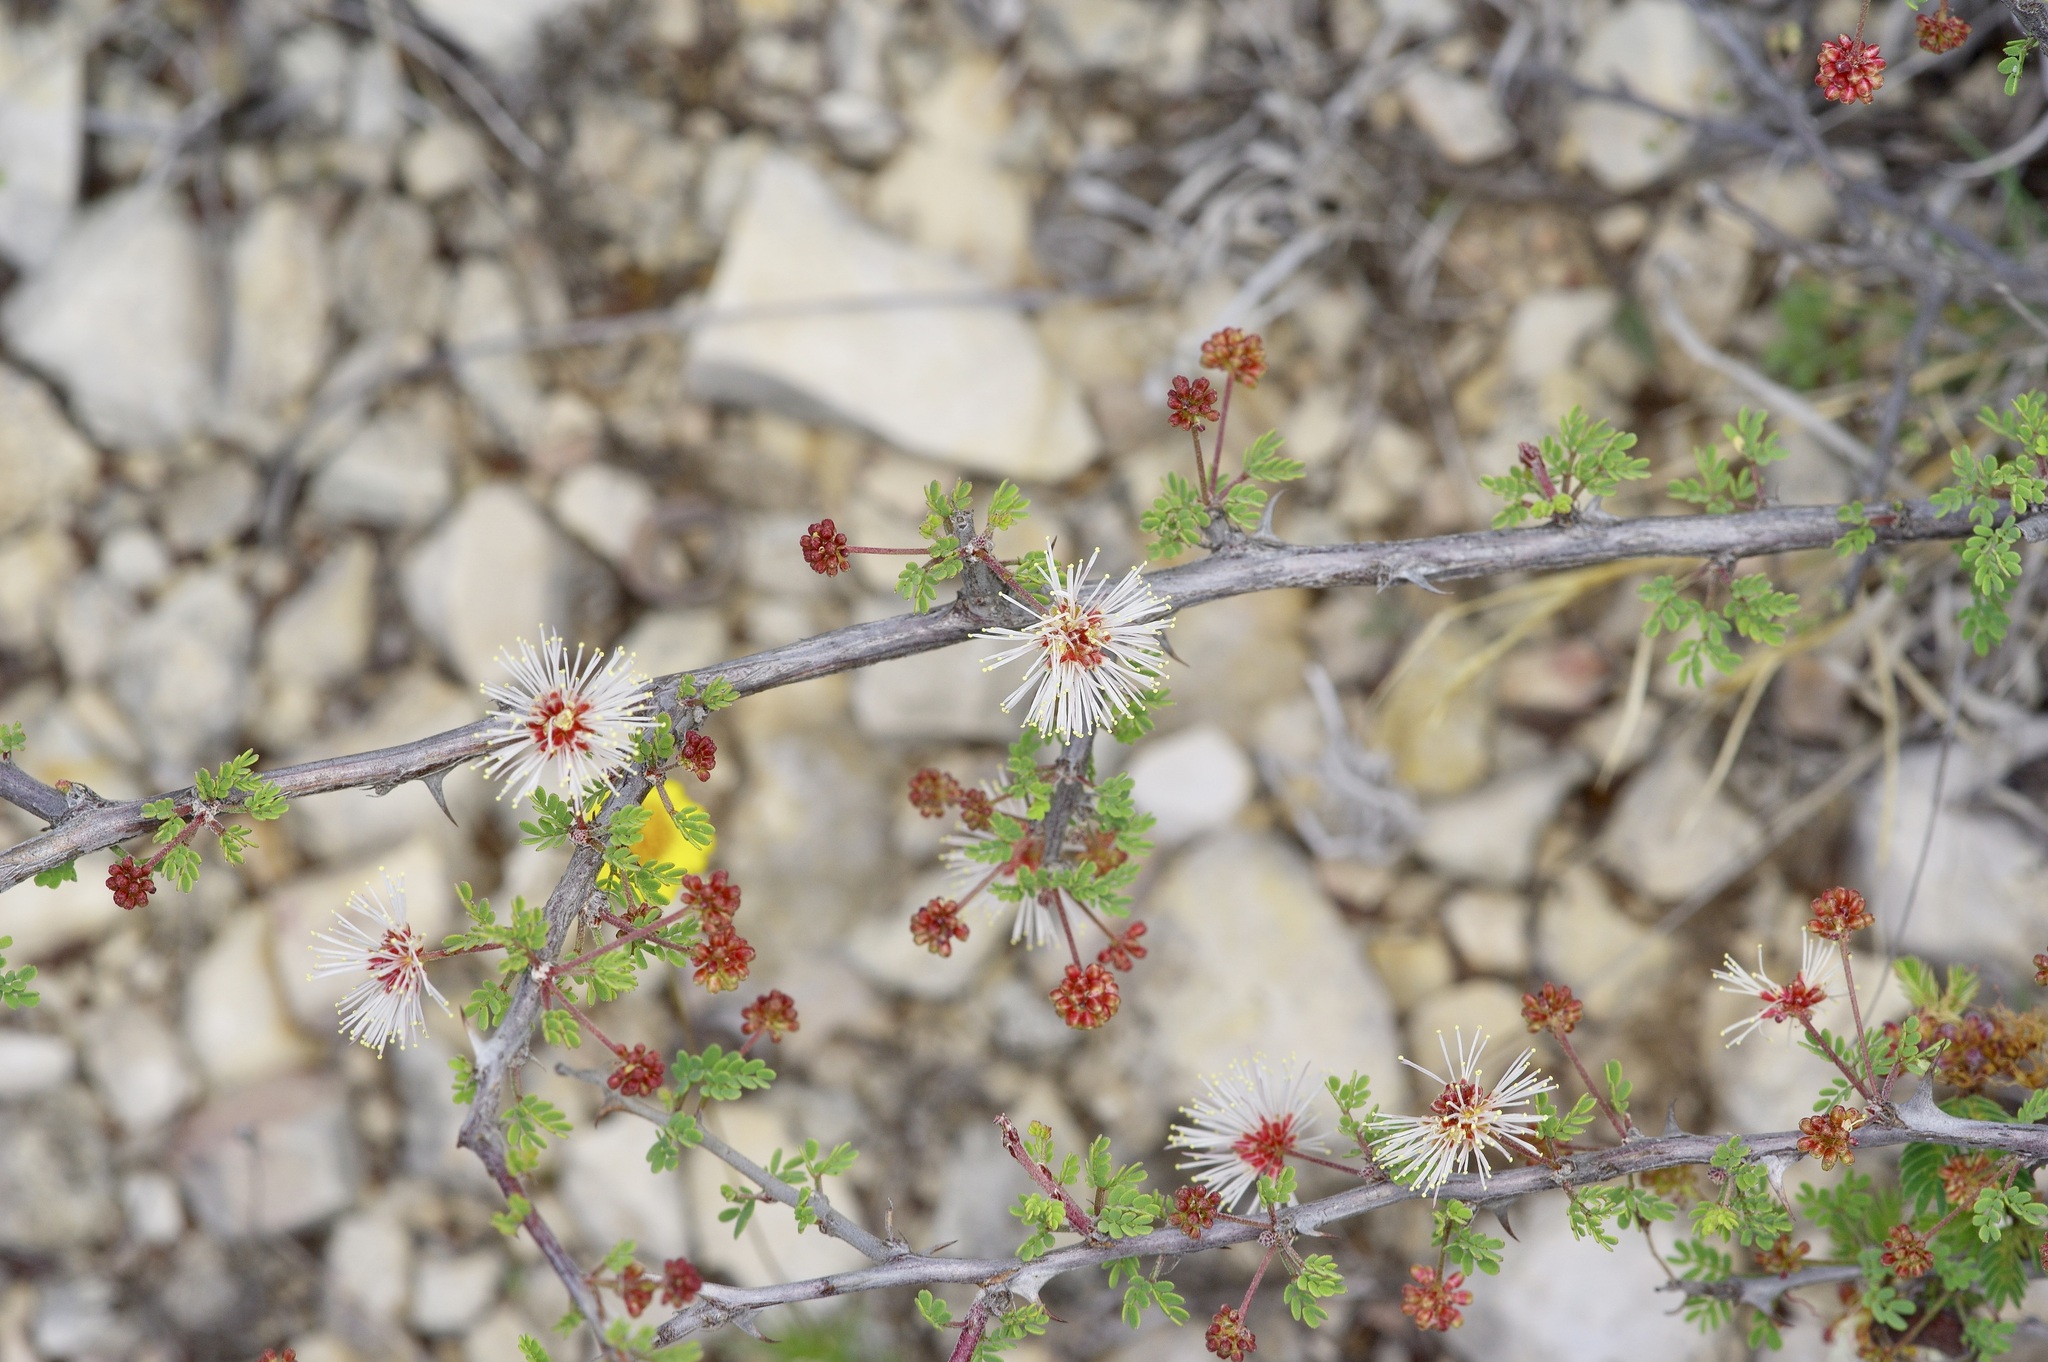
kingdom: Plantae
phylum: Tracheophyta
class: Magnoliopsida
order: Fabales
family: Fabaceae
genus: Mimosa
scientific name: Mimosa texana
